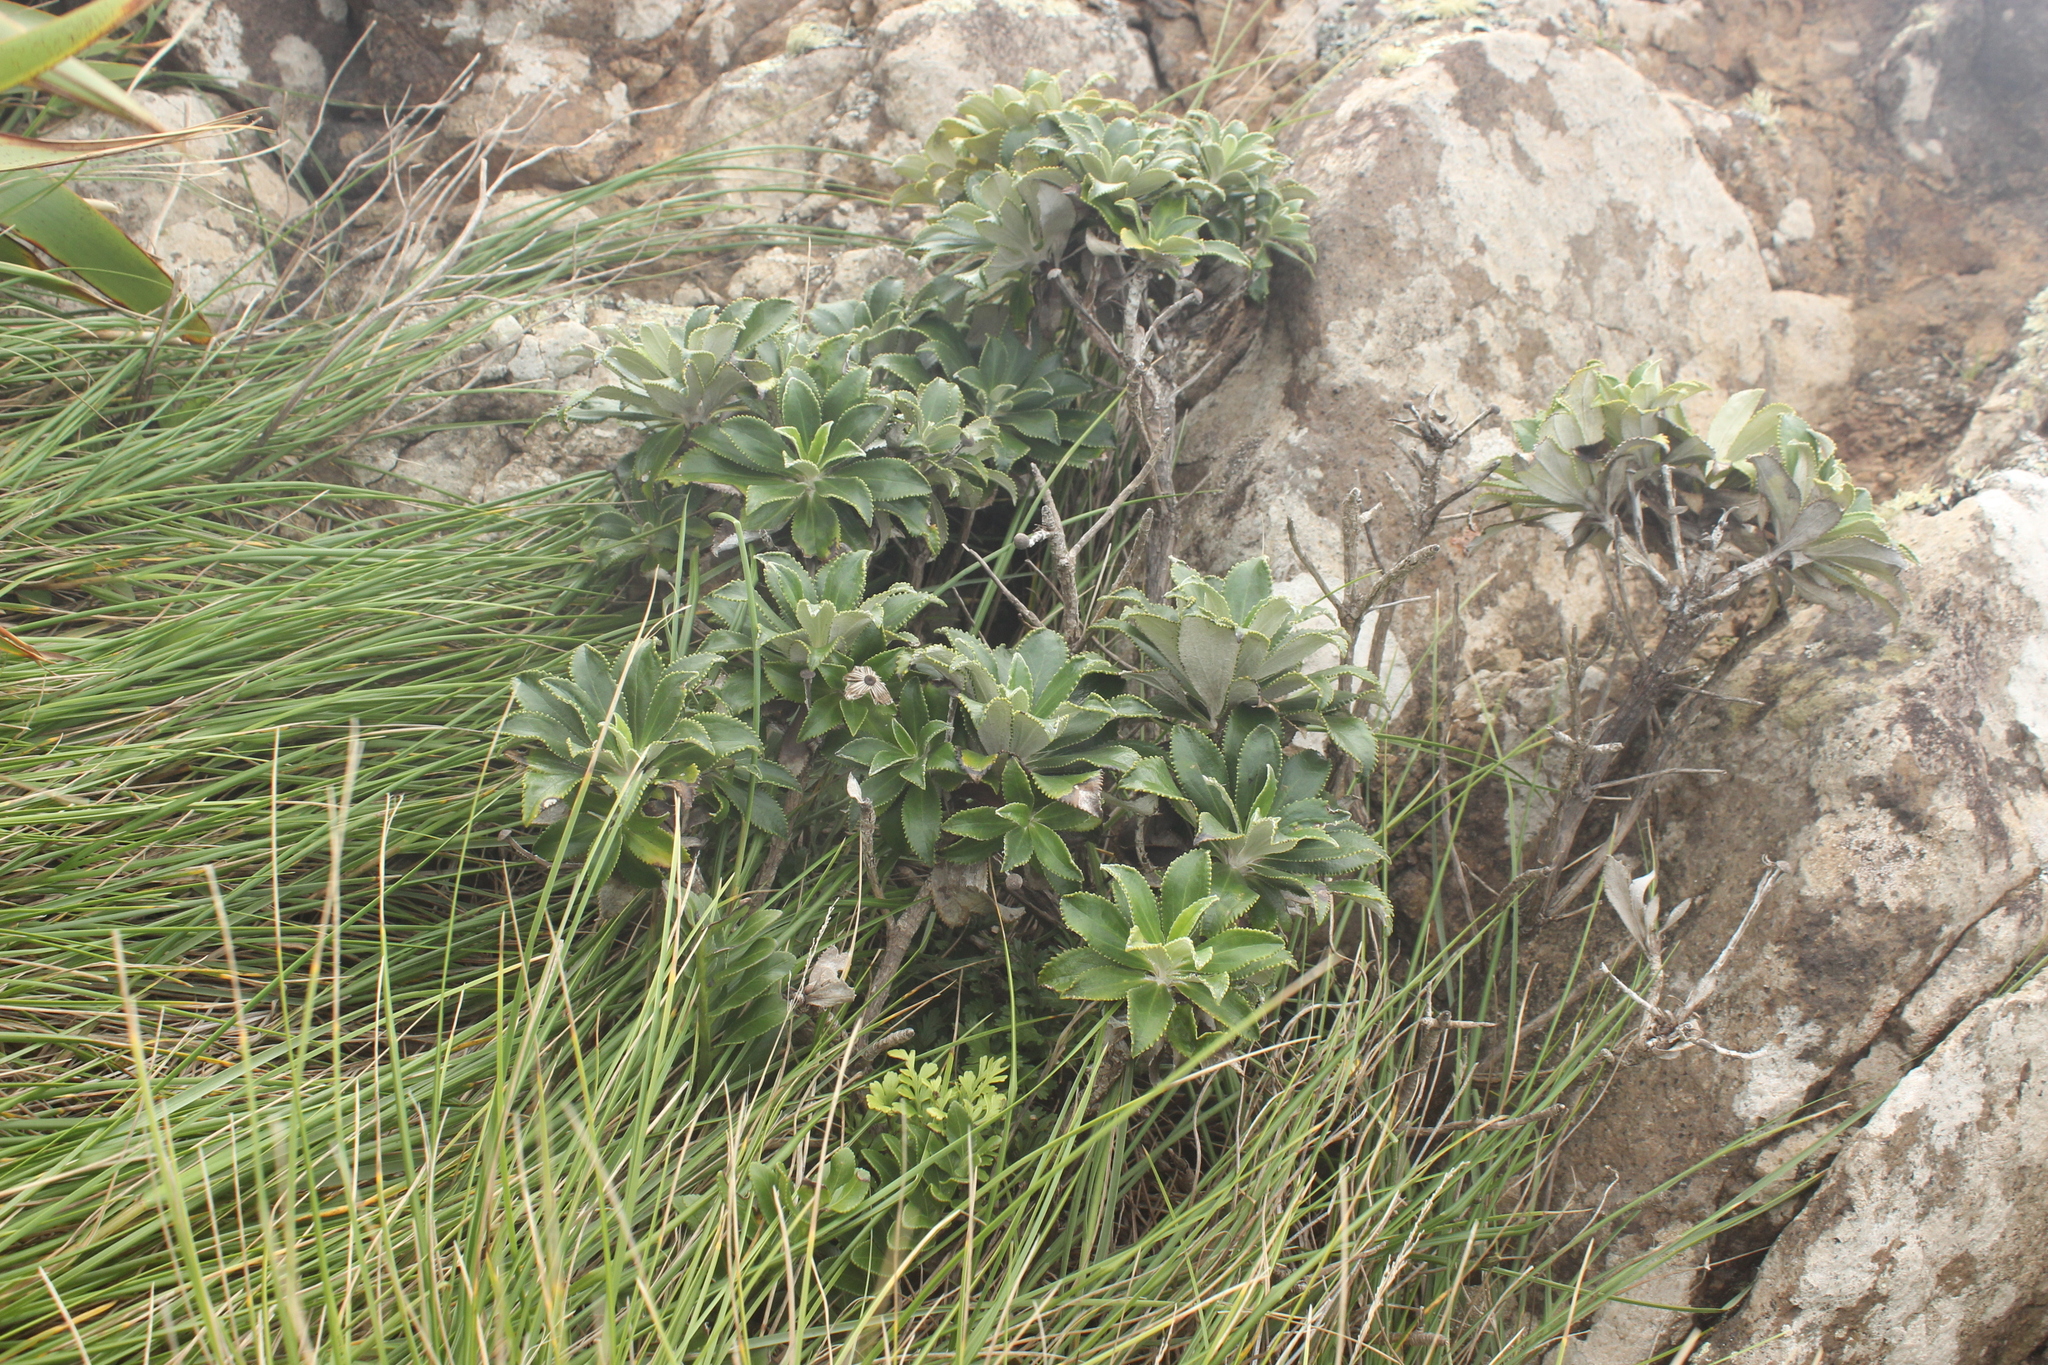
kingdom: Plantae
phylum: Tracheophyta
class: Magnoliopsida
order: Asterales
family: Asteraceae
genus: Macrolearia
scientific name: Macrolearia chathamica
